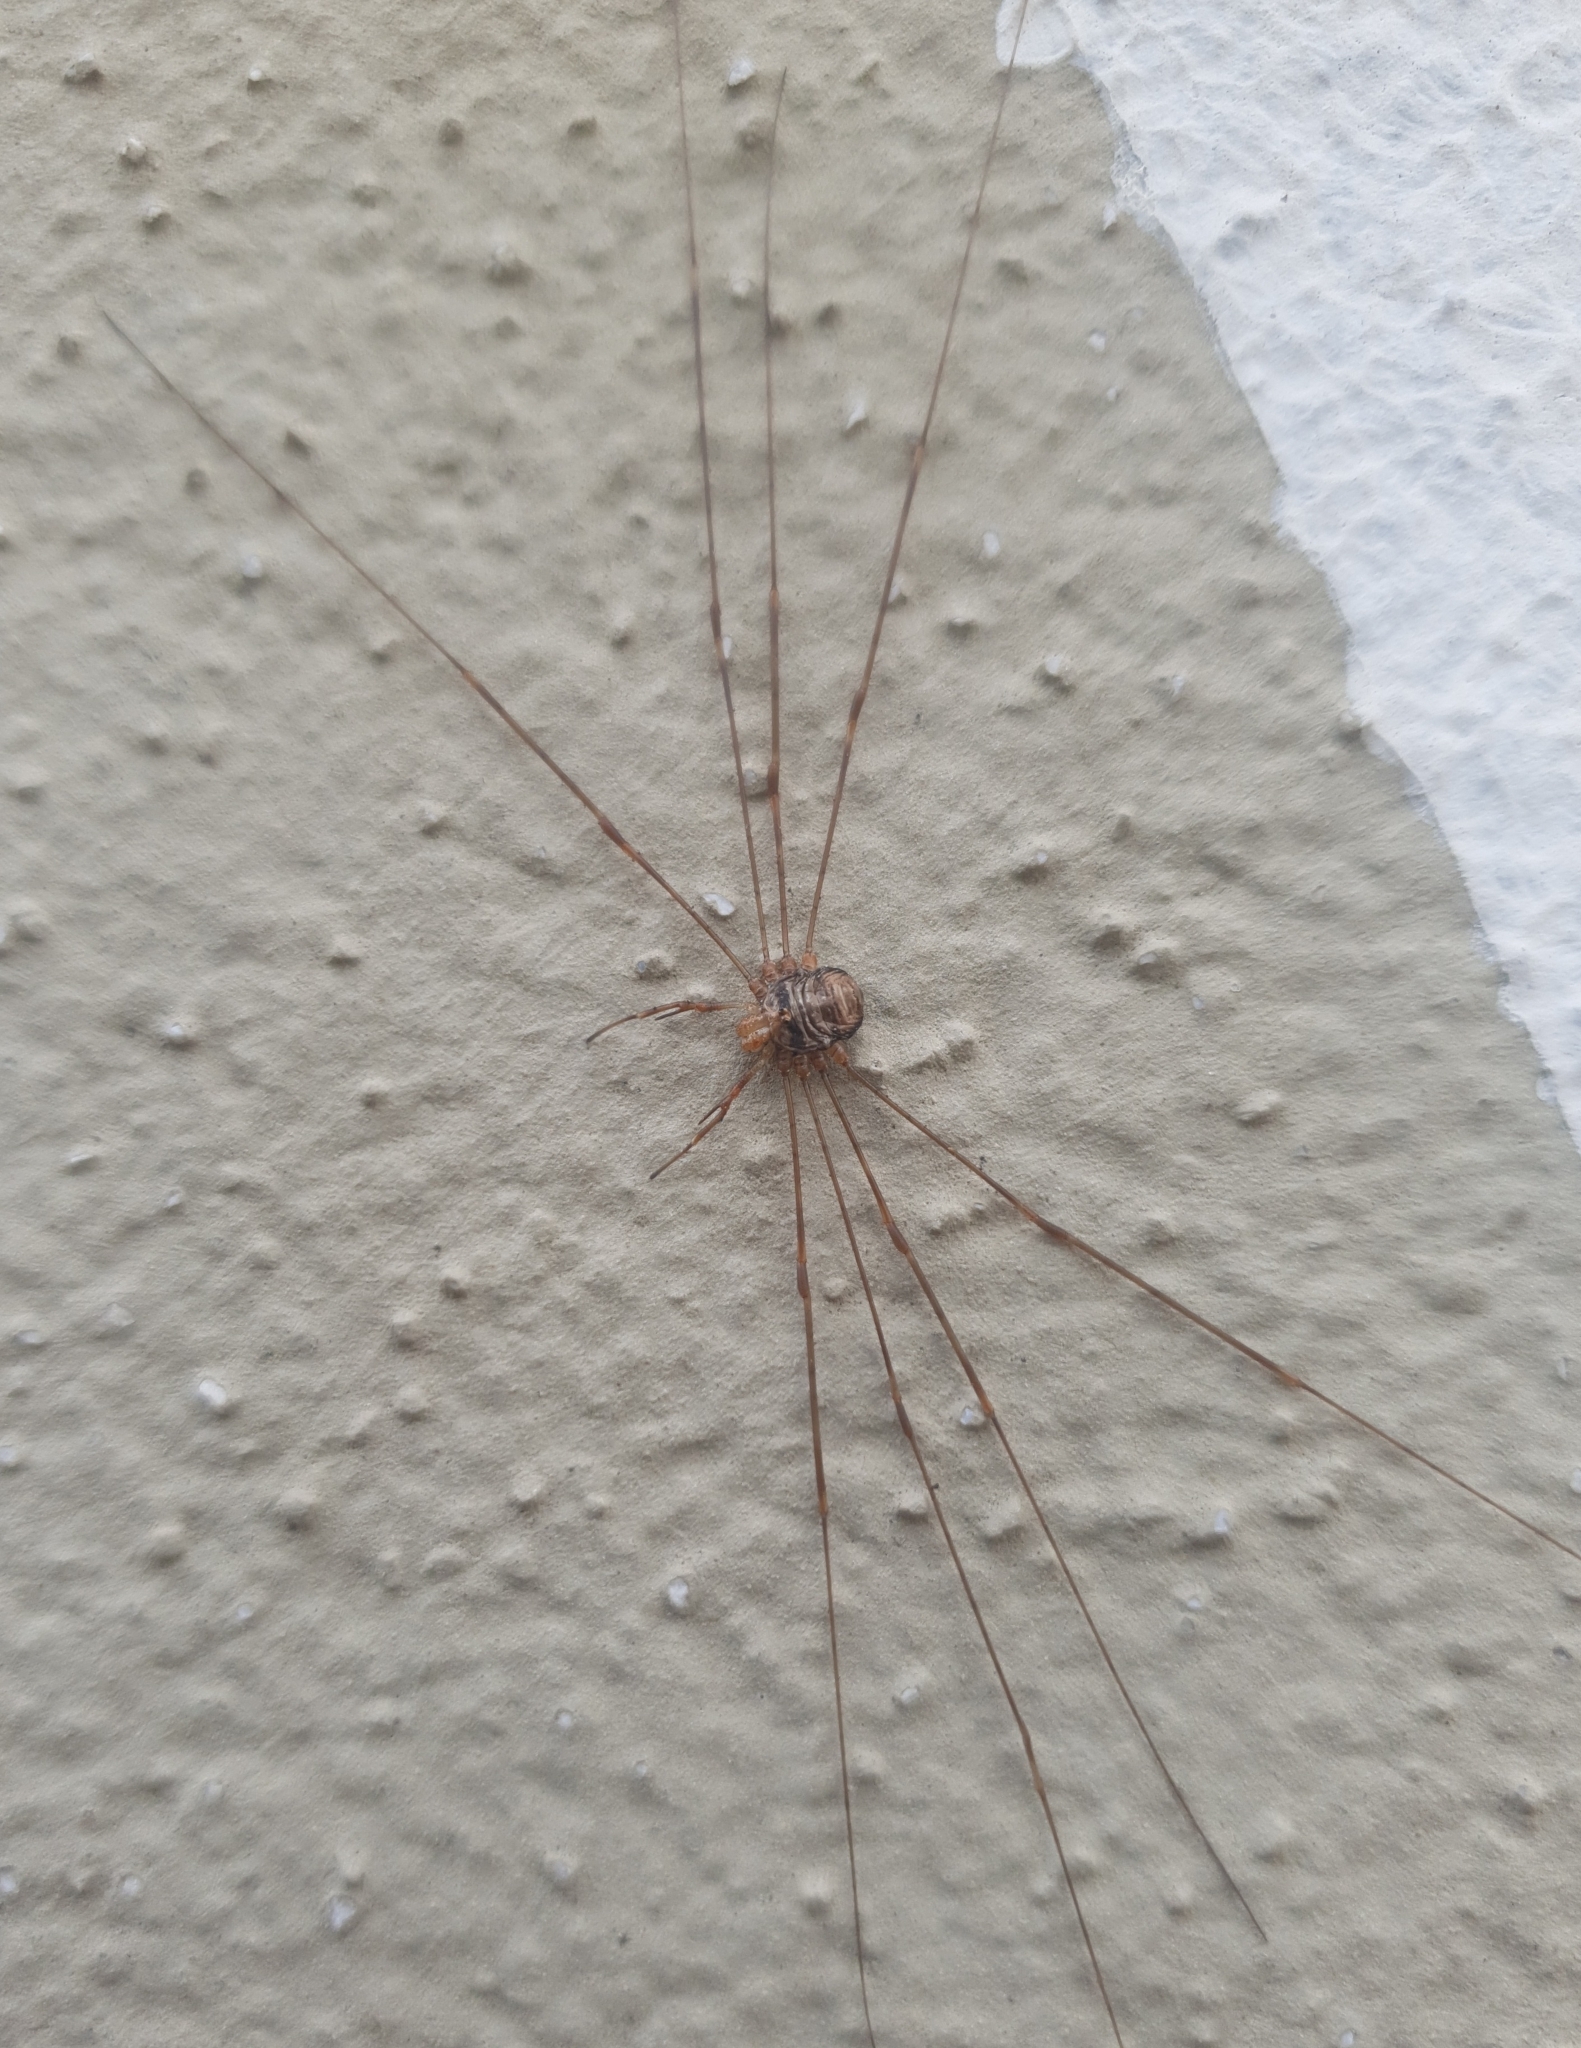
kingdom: Animalia
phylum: Arthropoda
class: Arachnida
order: Opiliones
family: Phalangiidae
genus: Dicranopalpus
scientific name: Dicranopalpus ramosus
